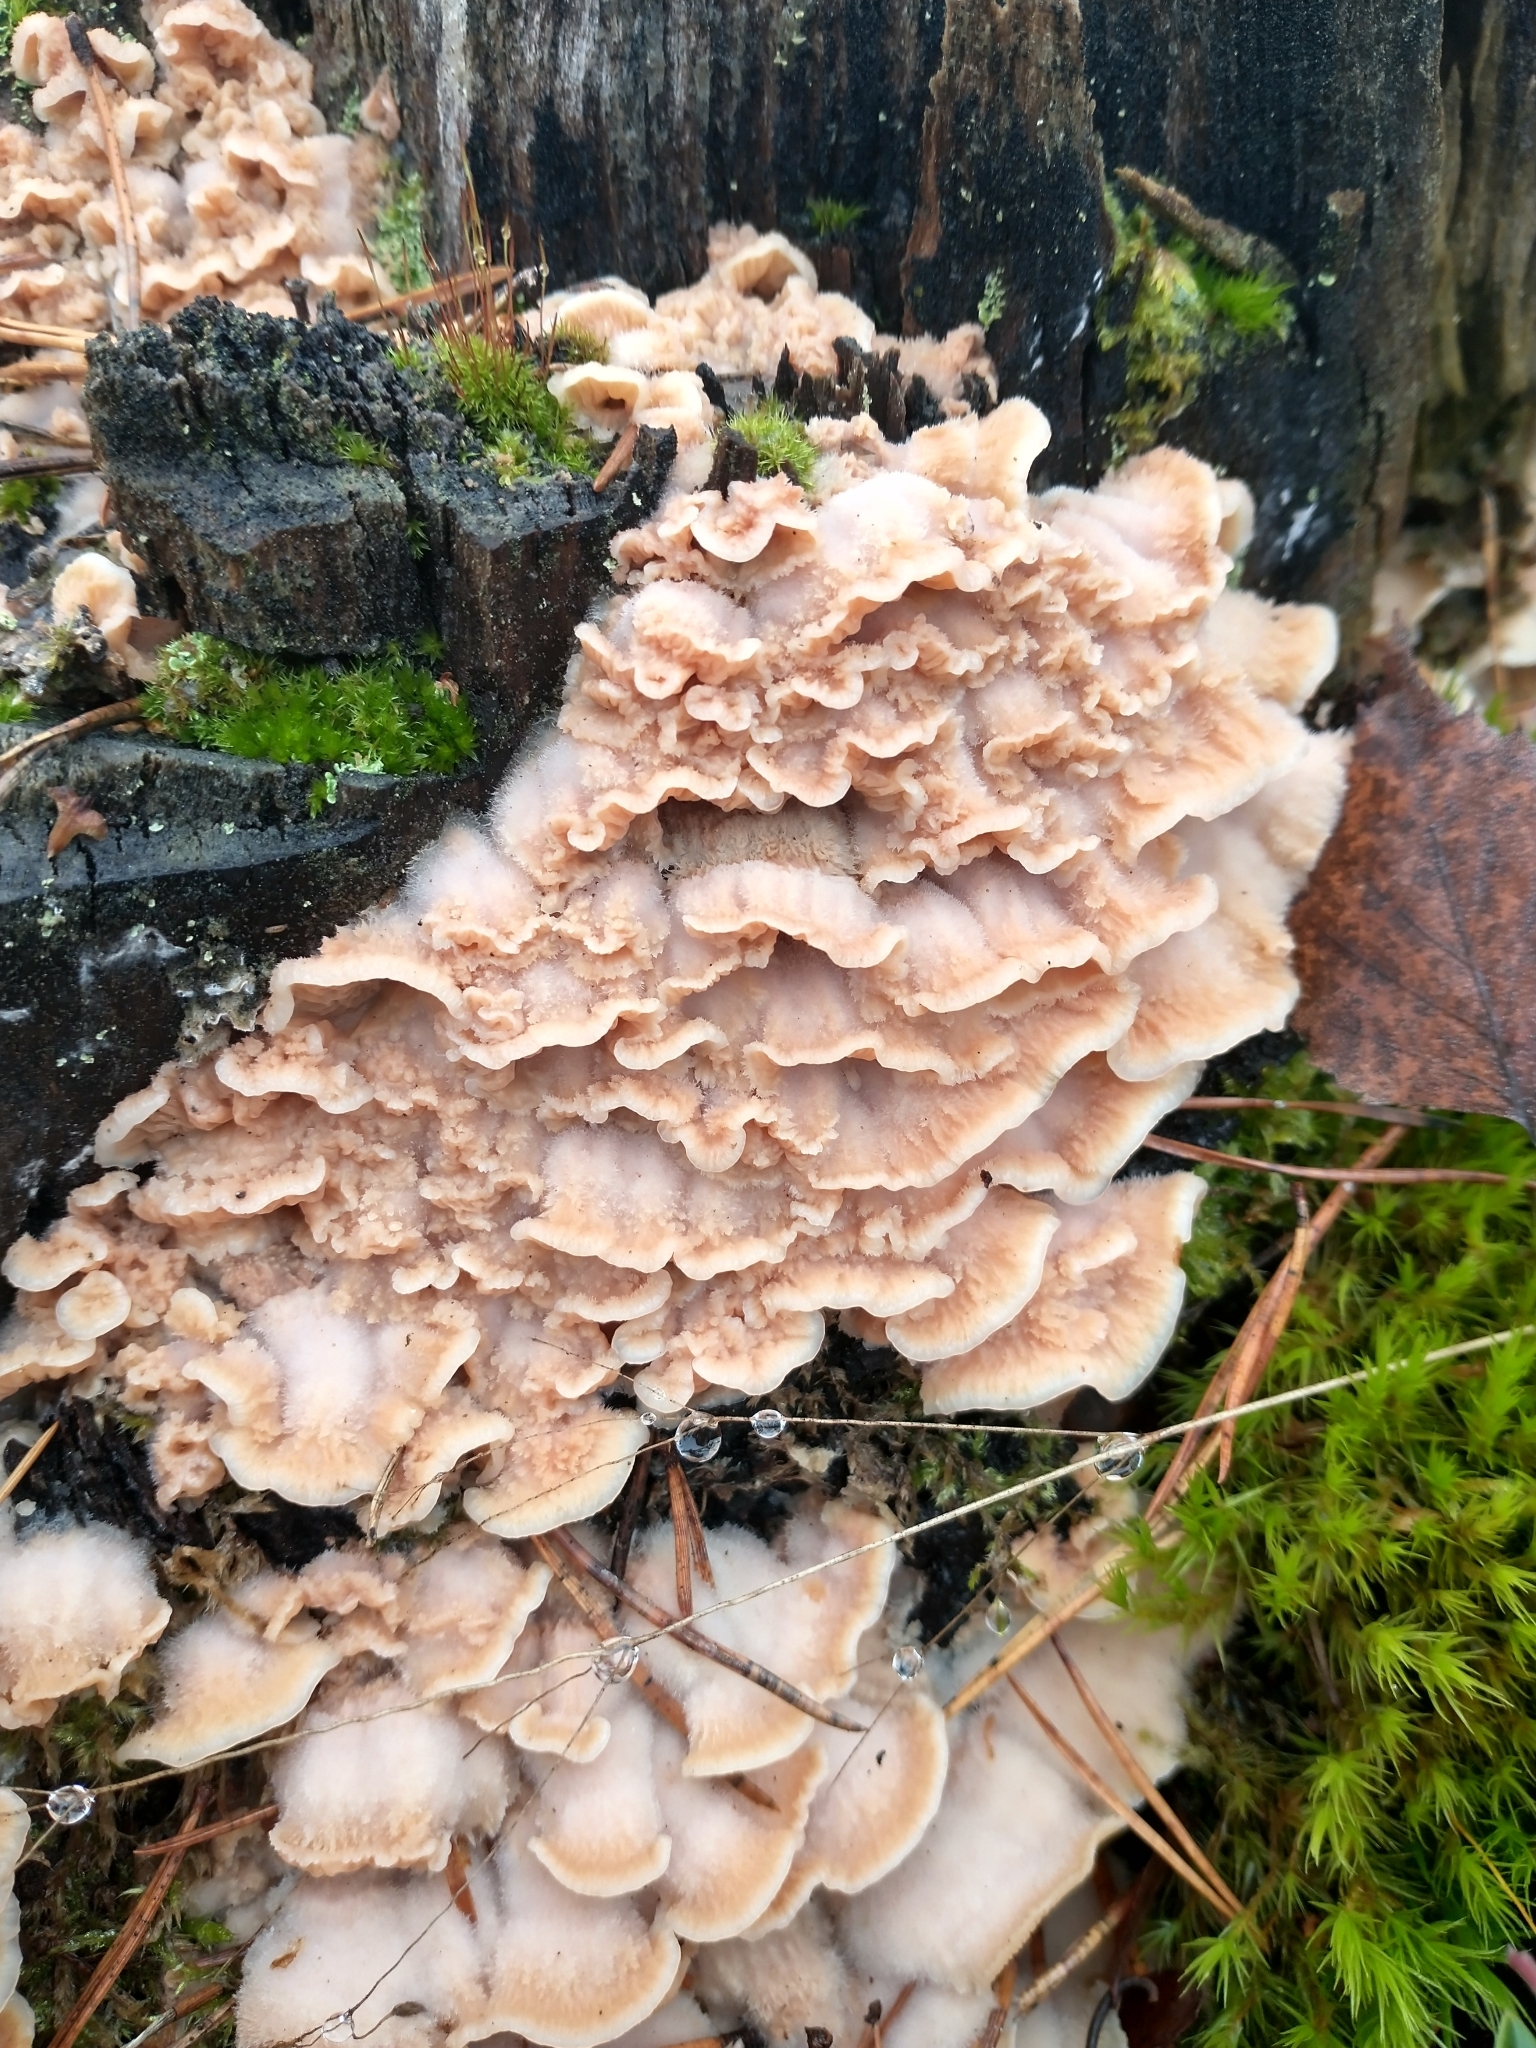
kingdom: Fungi
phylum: Basidiomycota
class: Agaricomycetes
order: Polyporales
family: Meruliaceae
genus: Phlebia
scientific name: Phlebia tremellosa
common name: Jelly rot
